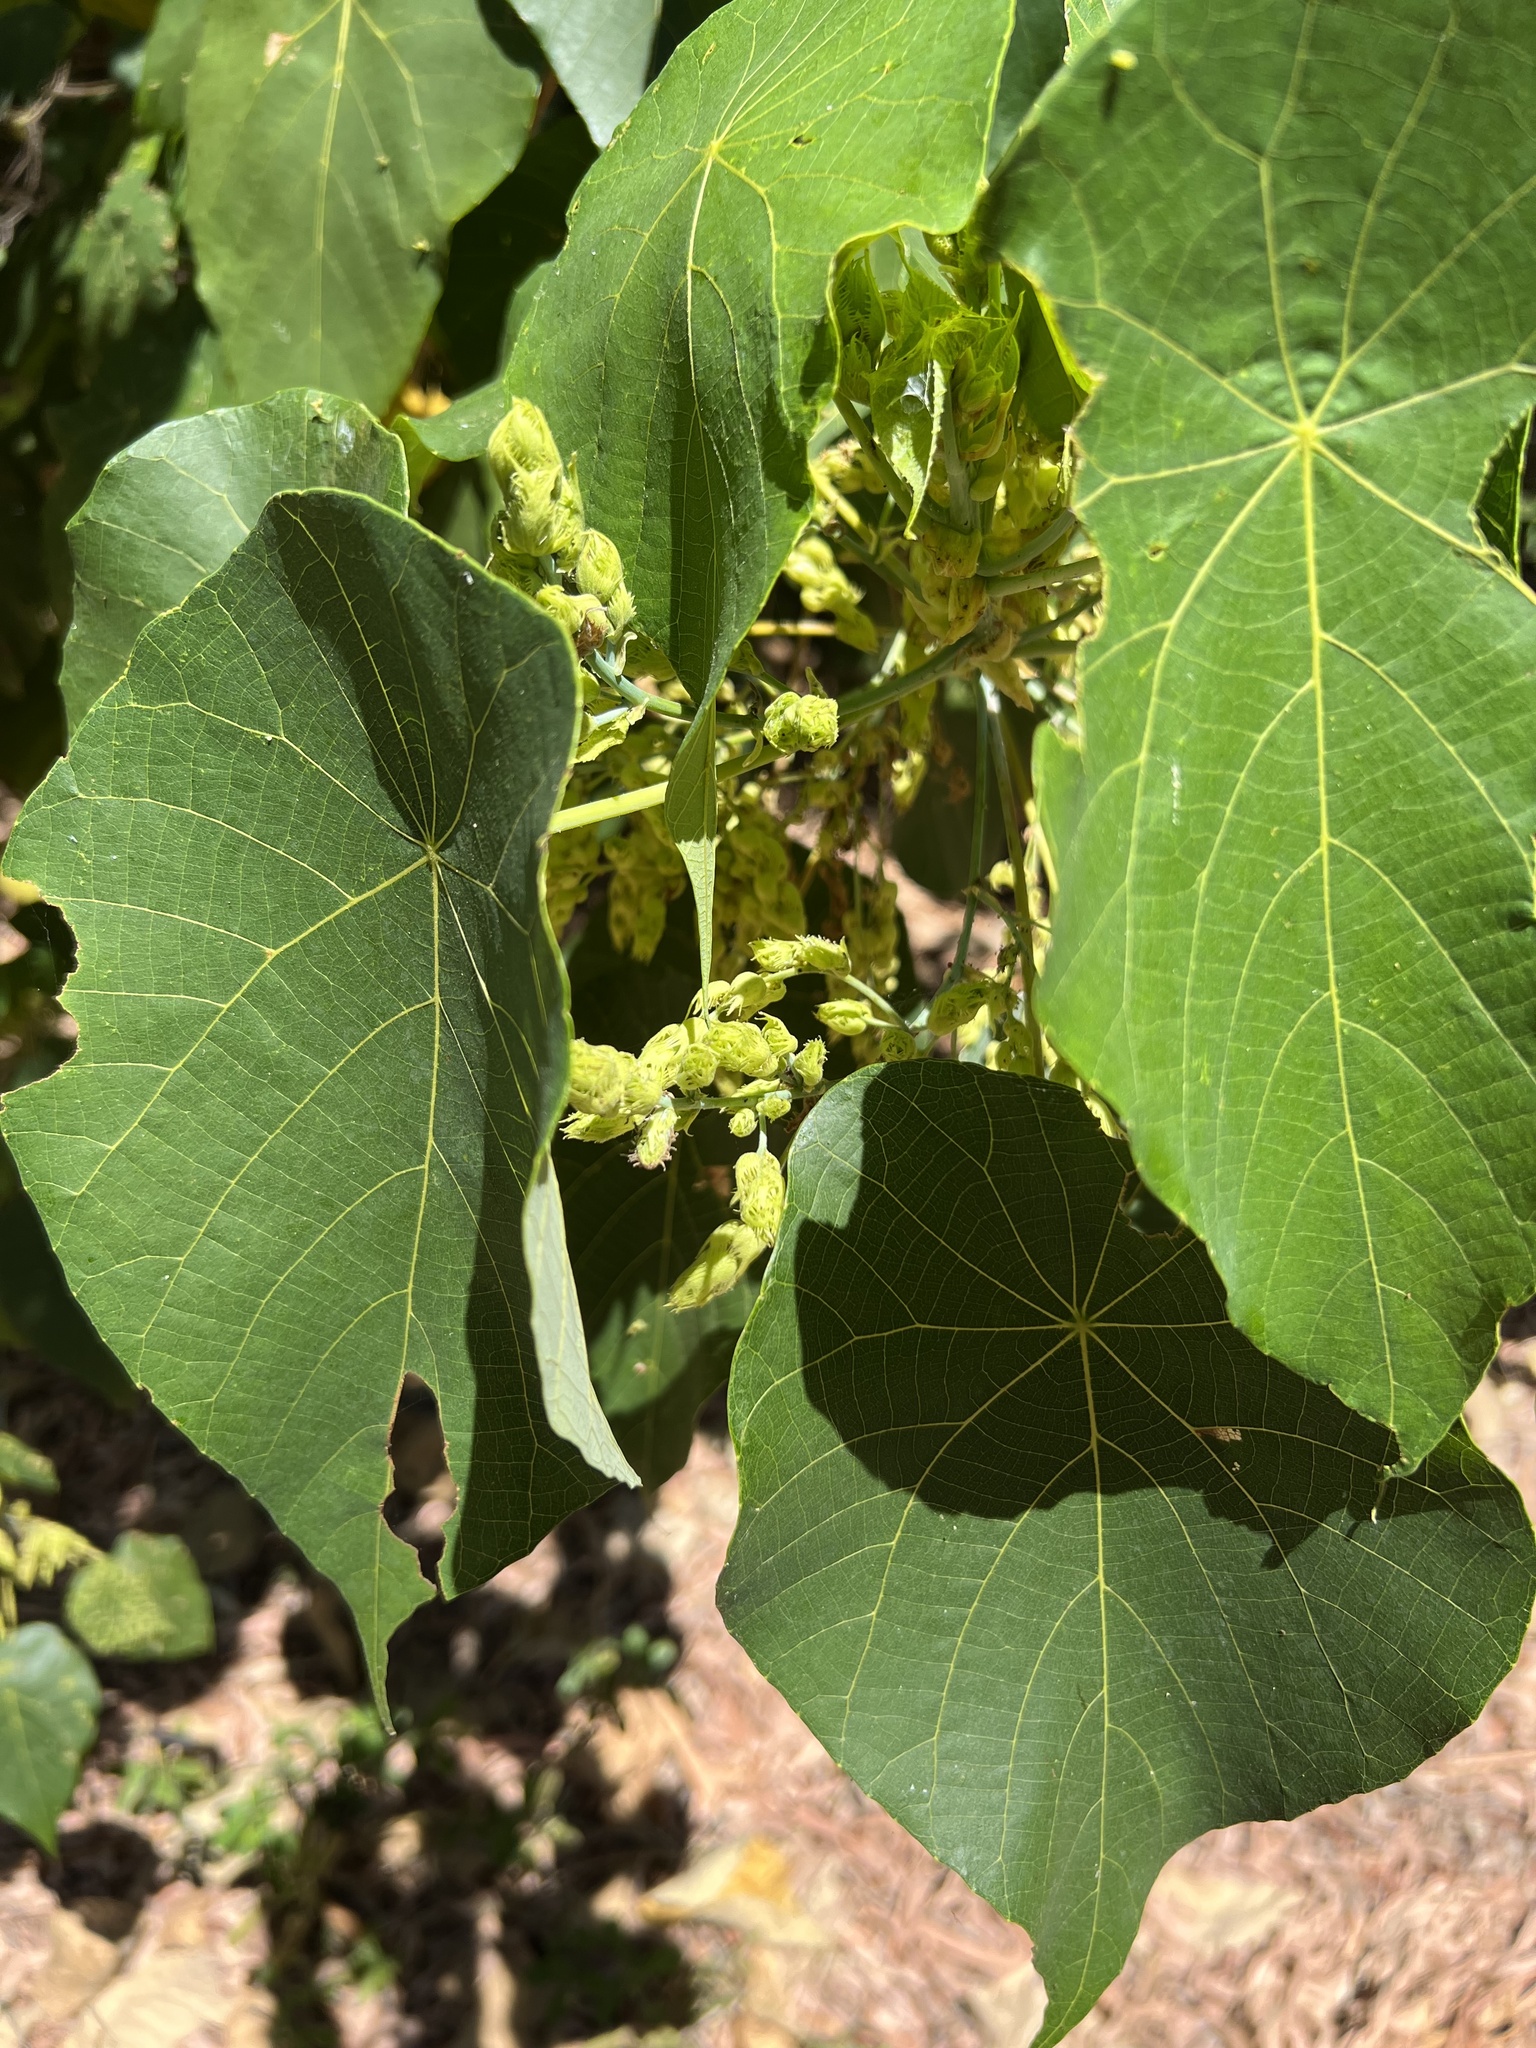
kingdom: Plantae
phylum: Tracheophyta
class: Magnoliopsida
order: Malpighiales
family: Euphorbiaceae
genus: Macaranga
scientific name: Macaranga tanarius
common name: Parasol leaf tree
